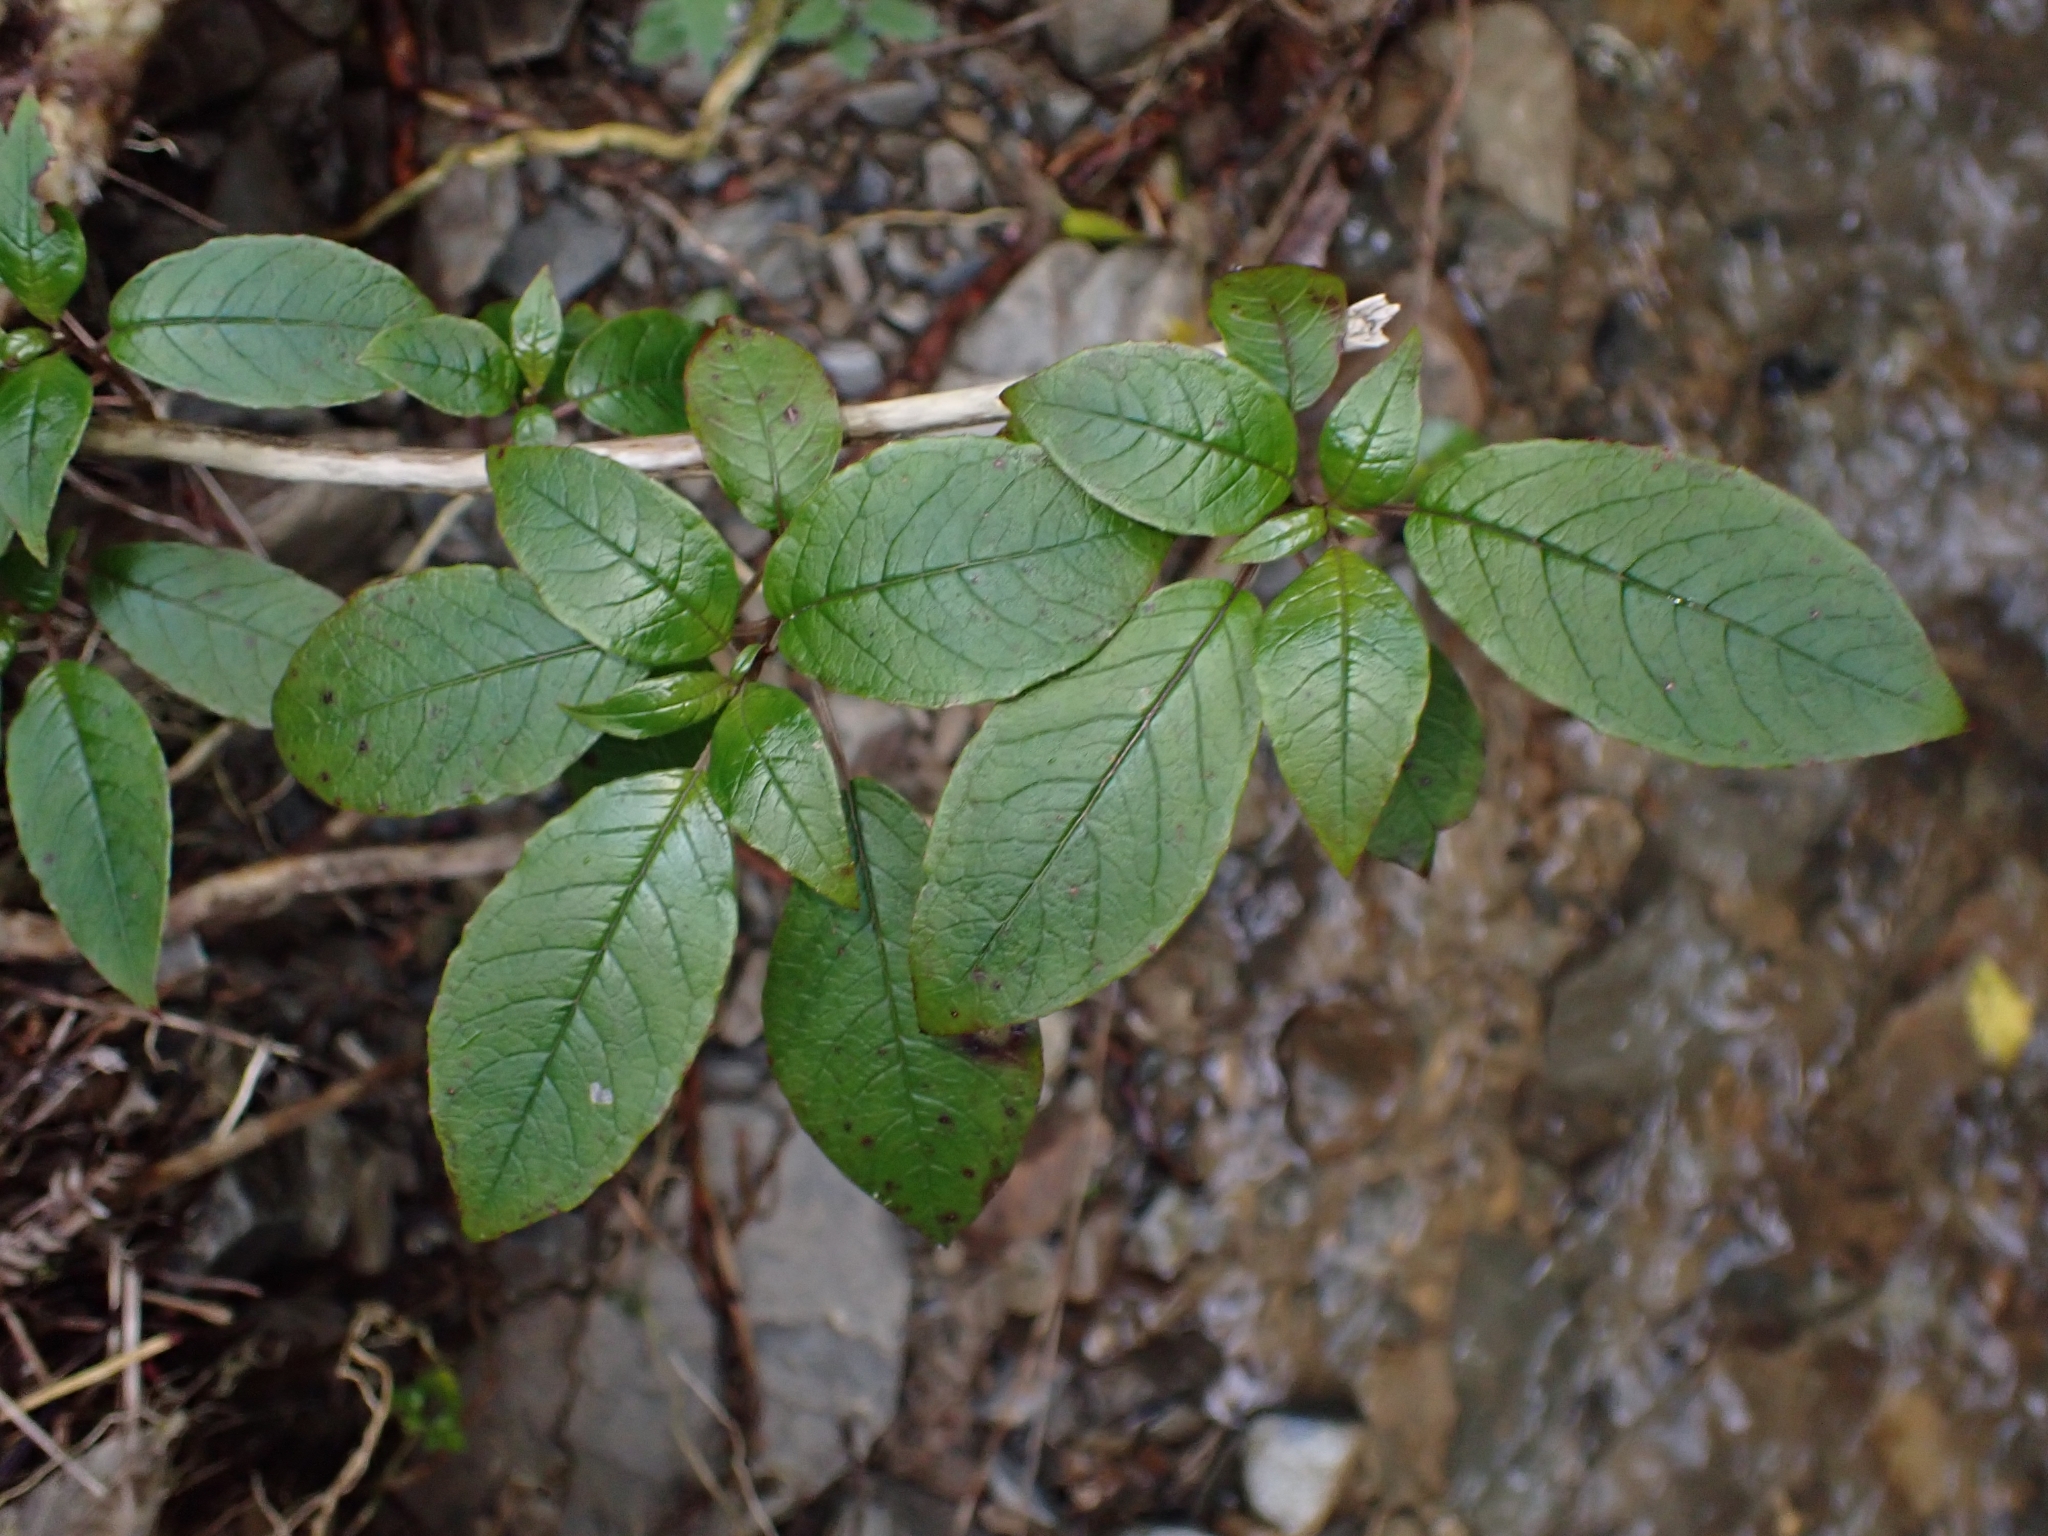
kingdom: Plantae
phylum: Tracheophyta
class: Magnoliopsida
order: Myrtales
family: Onagraceae
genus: Fuchsia
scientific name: Fuchsia excorticata
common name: Tree fuchsia
